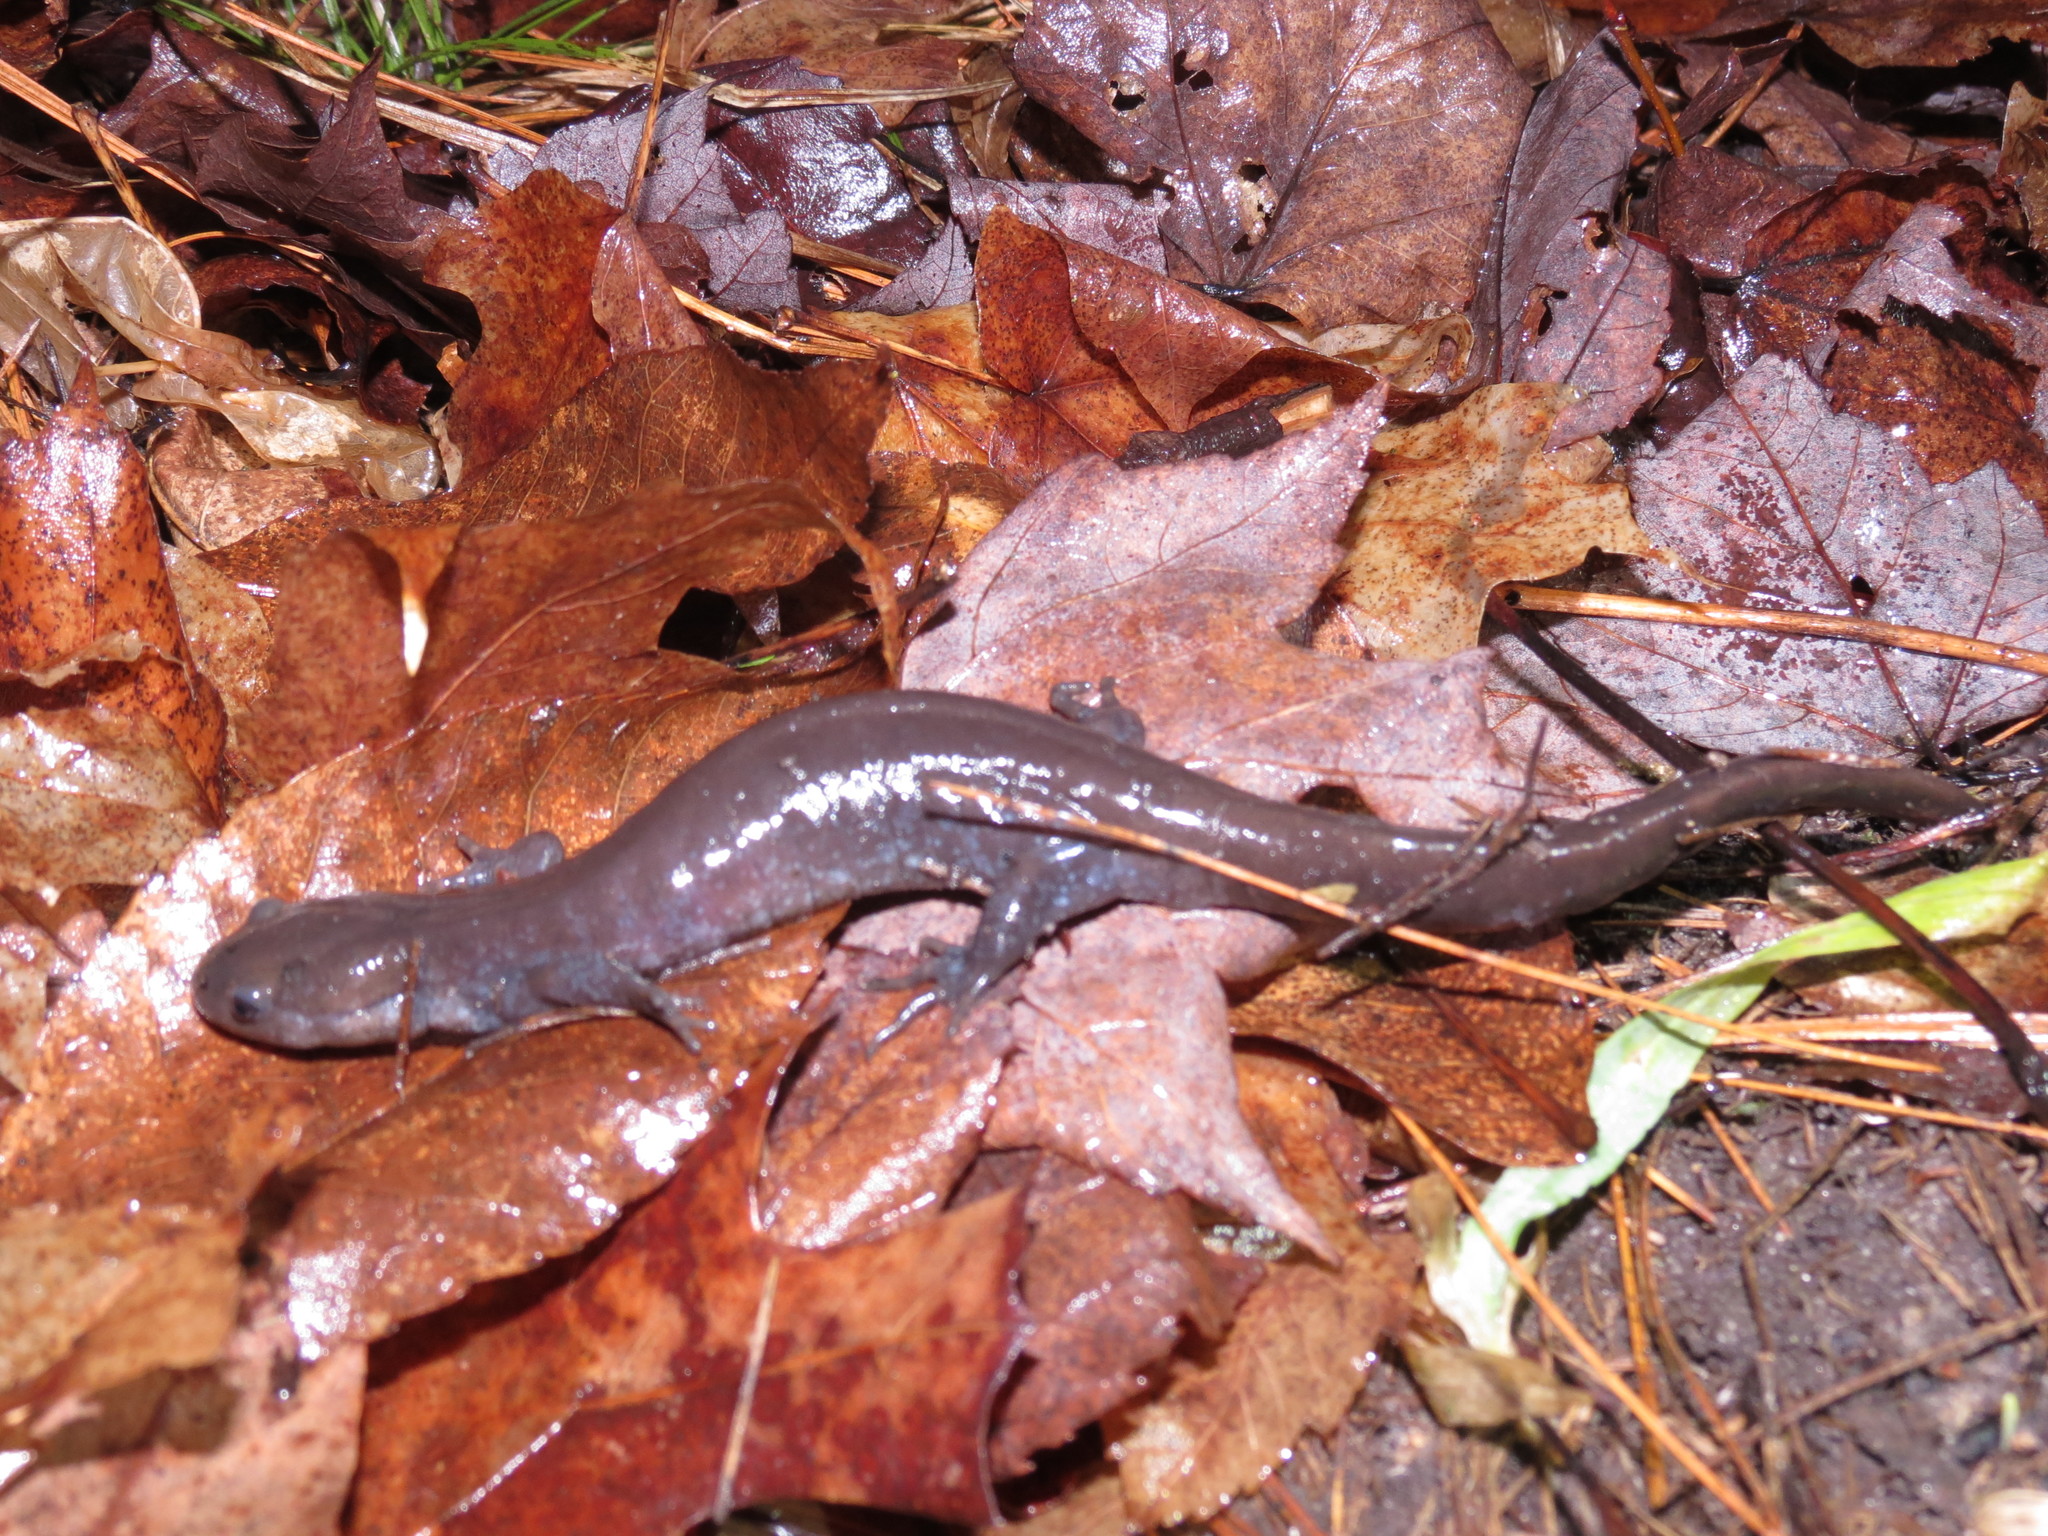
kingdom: Animalia
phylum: Chordata
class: Amphibia
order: Caudata
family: Ambystomatidae
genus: Ambystoma
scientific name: Ambystoma jeffersonianum
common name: Jefferson salamander
